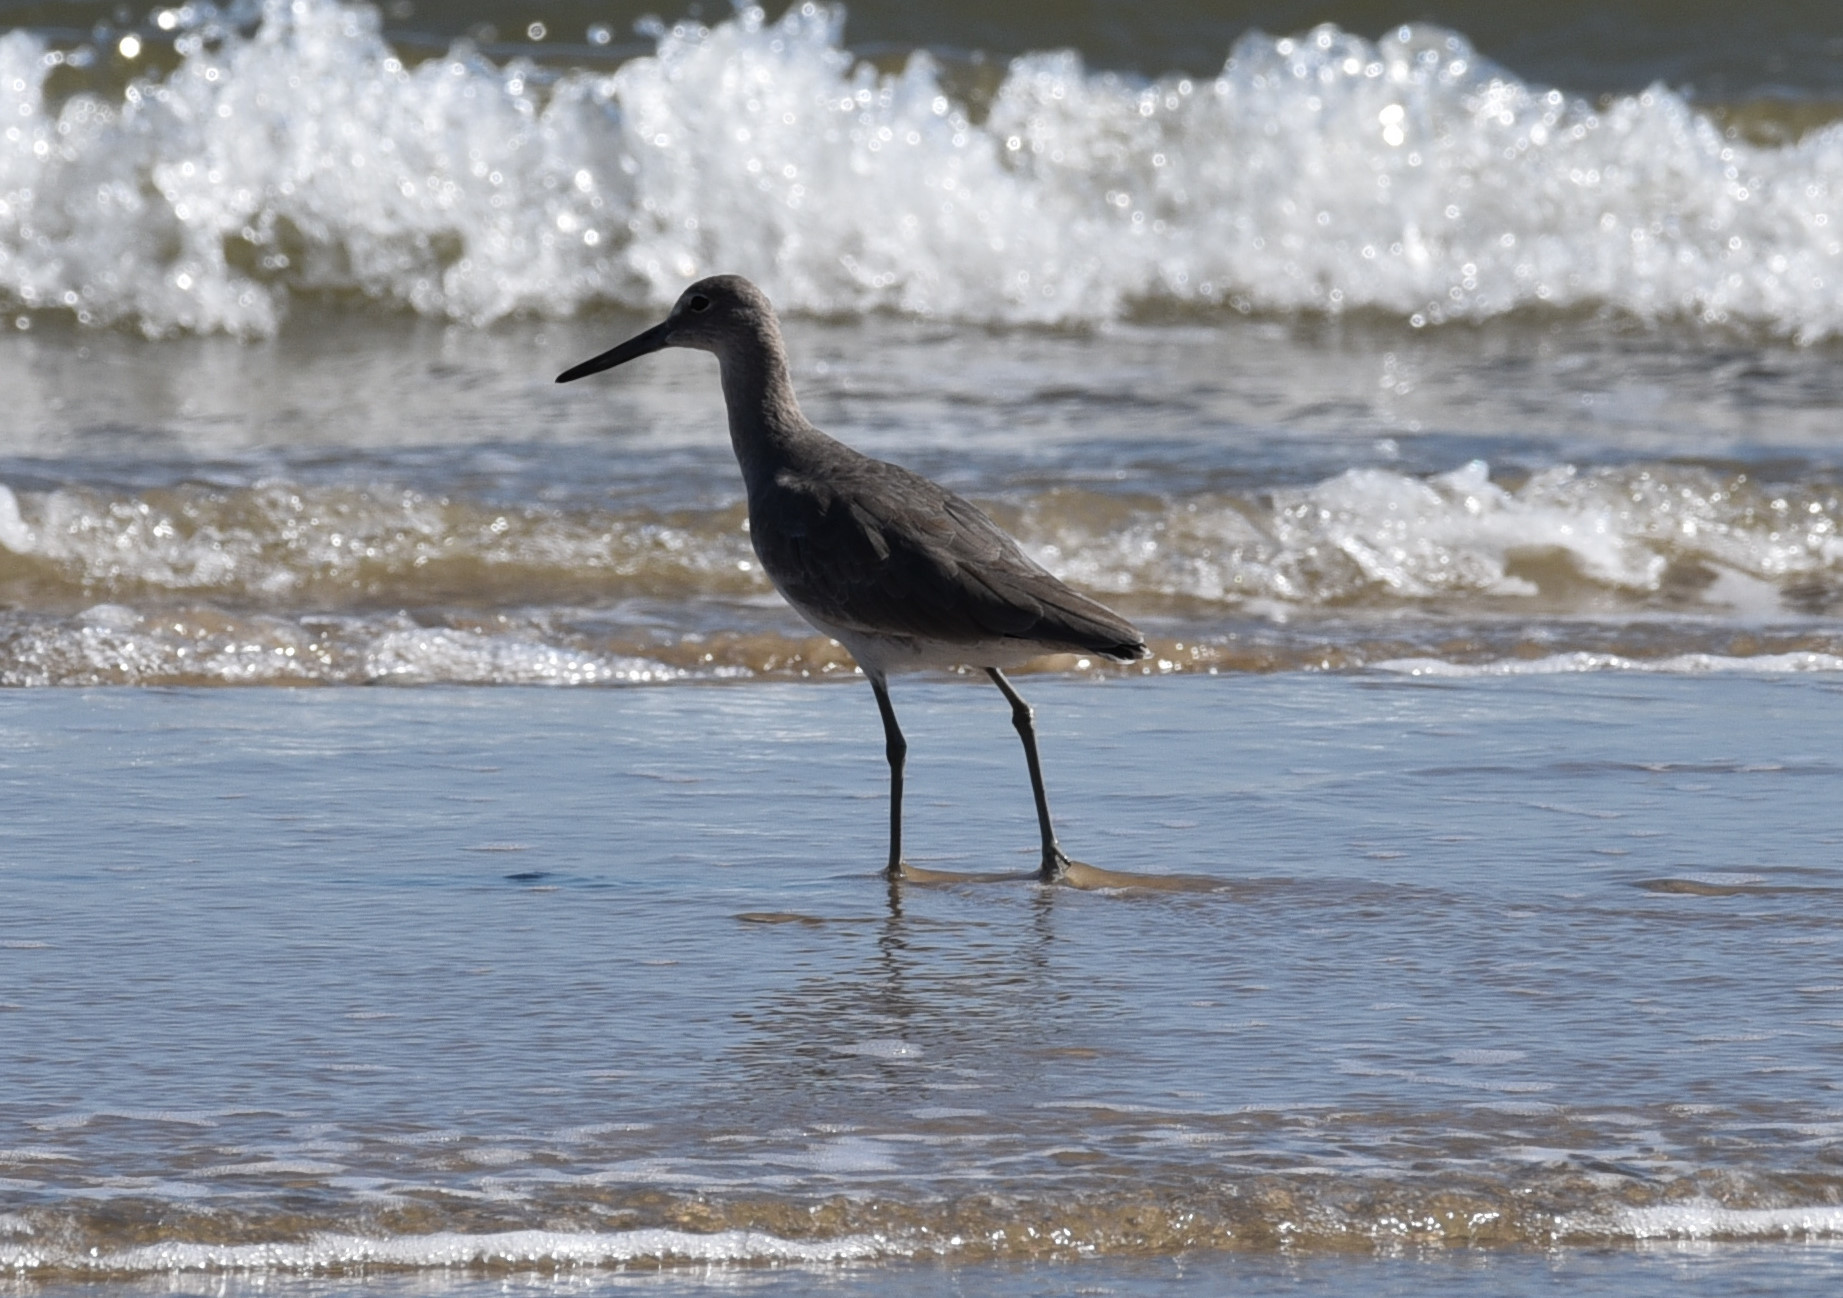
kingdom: Animalia
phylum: Chordata
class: Aves
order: Charadriiformes
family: Scolopacidae
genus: Tringa
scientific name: Tringa semipalmata
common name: Willet
